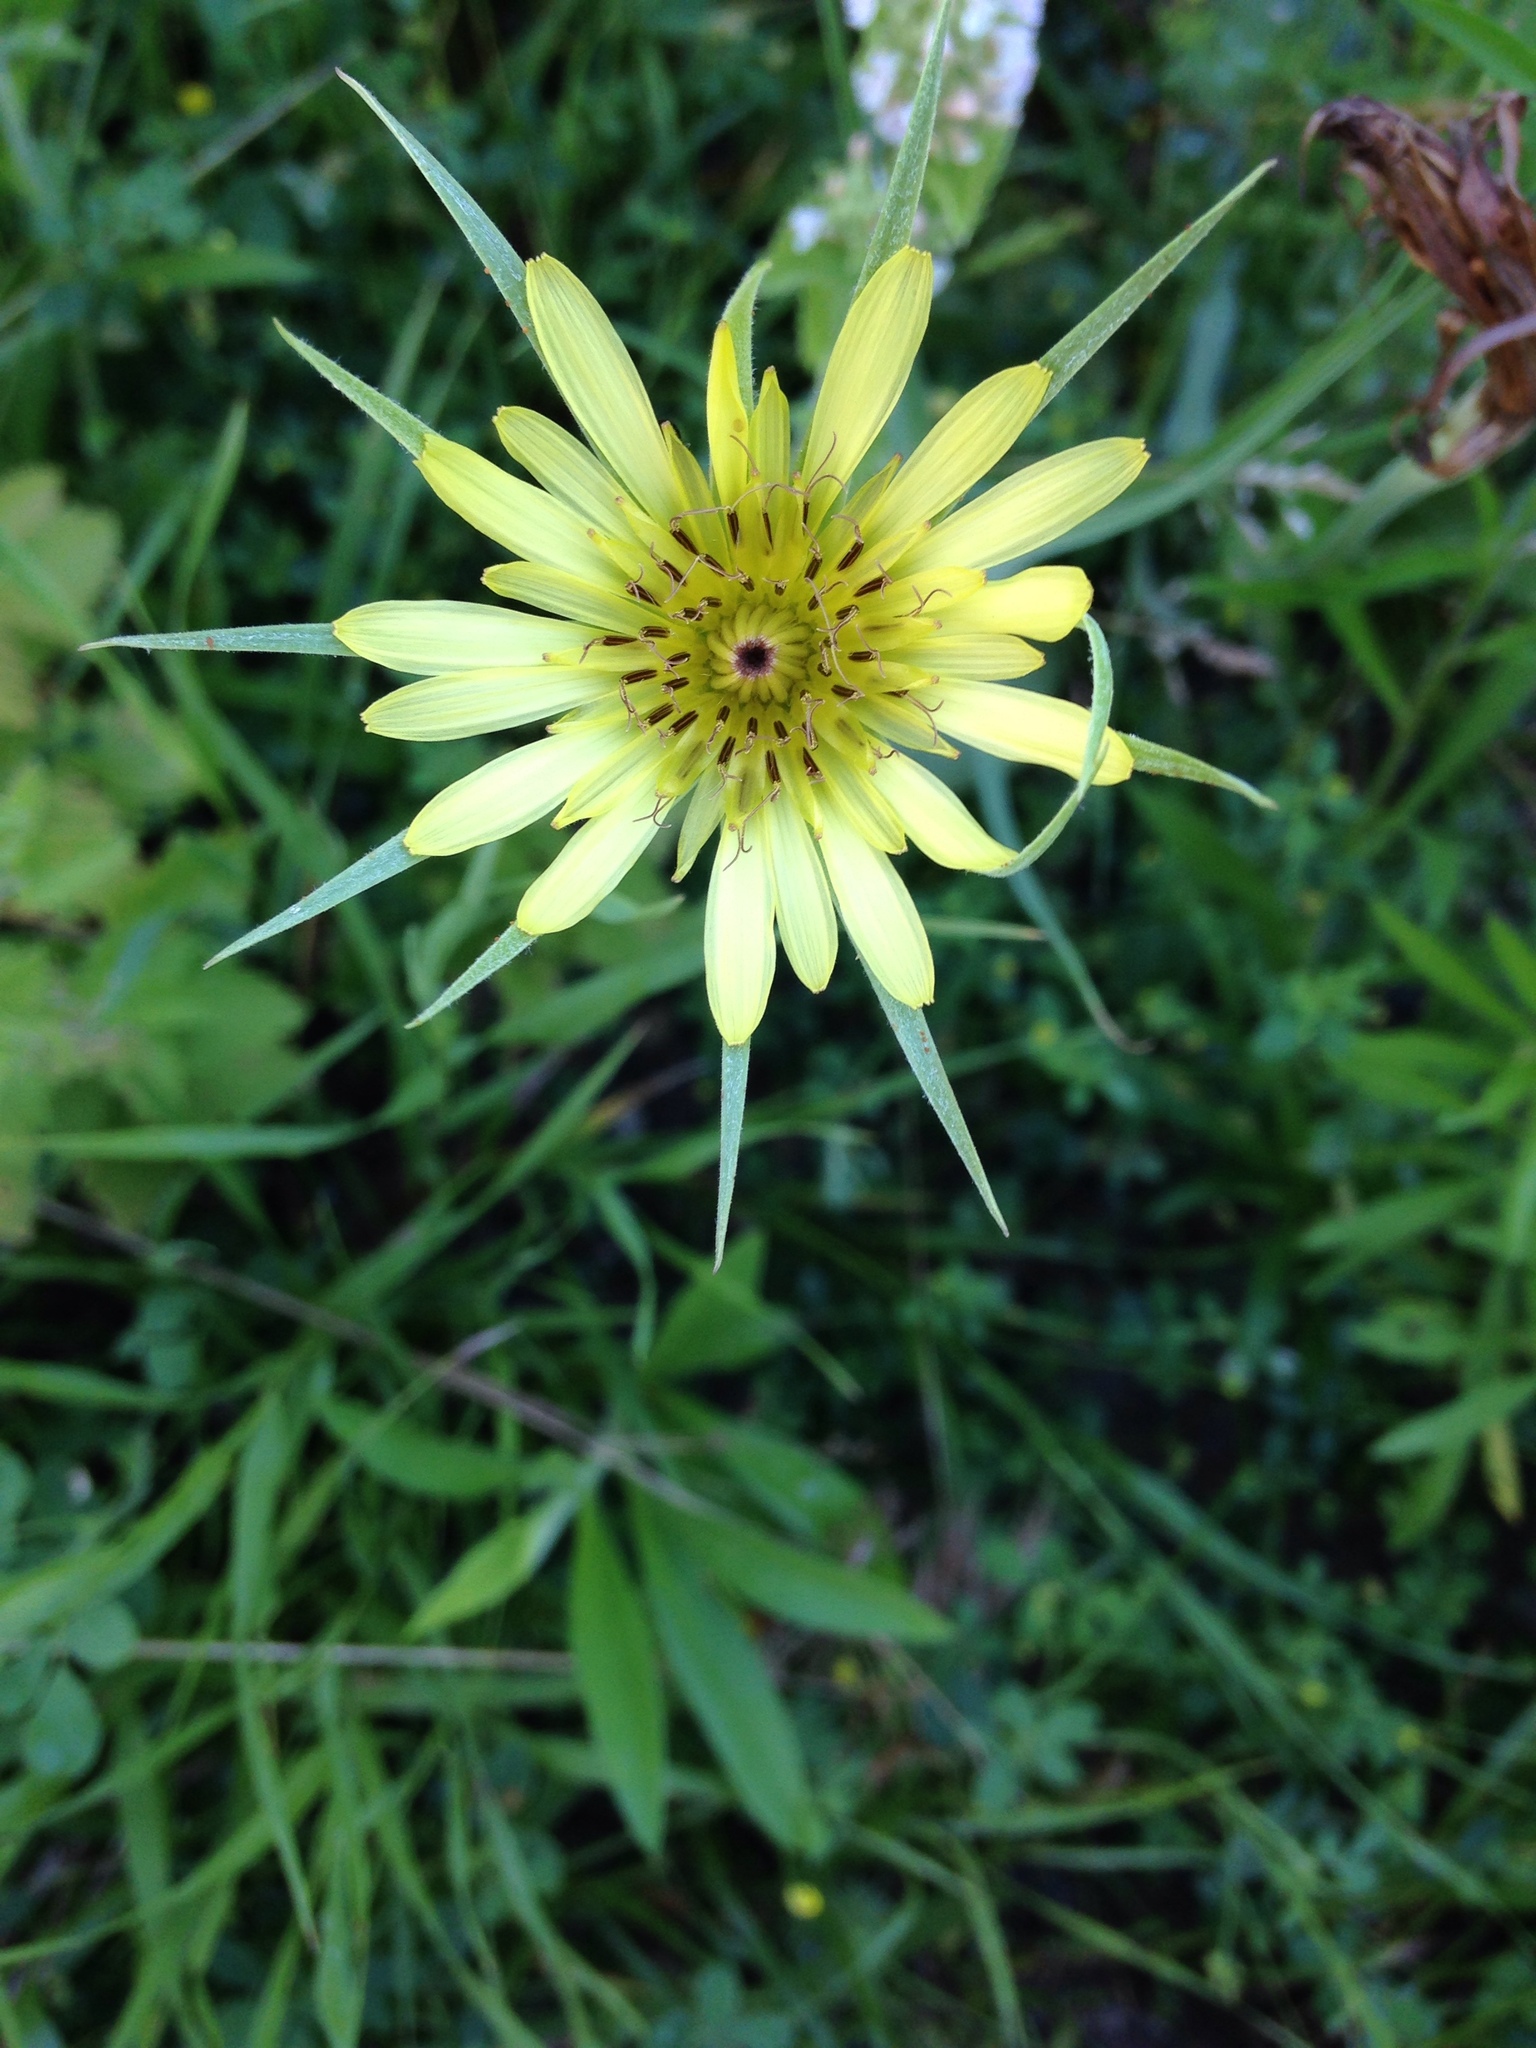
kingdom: Plantae
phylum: Tracheophyta
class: Magnoliopsida
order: Asterales
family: Asteraceae
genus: Tragopogon
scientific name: Tragopogon dubius
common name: Yellow salsify
